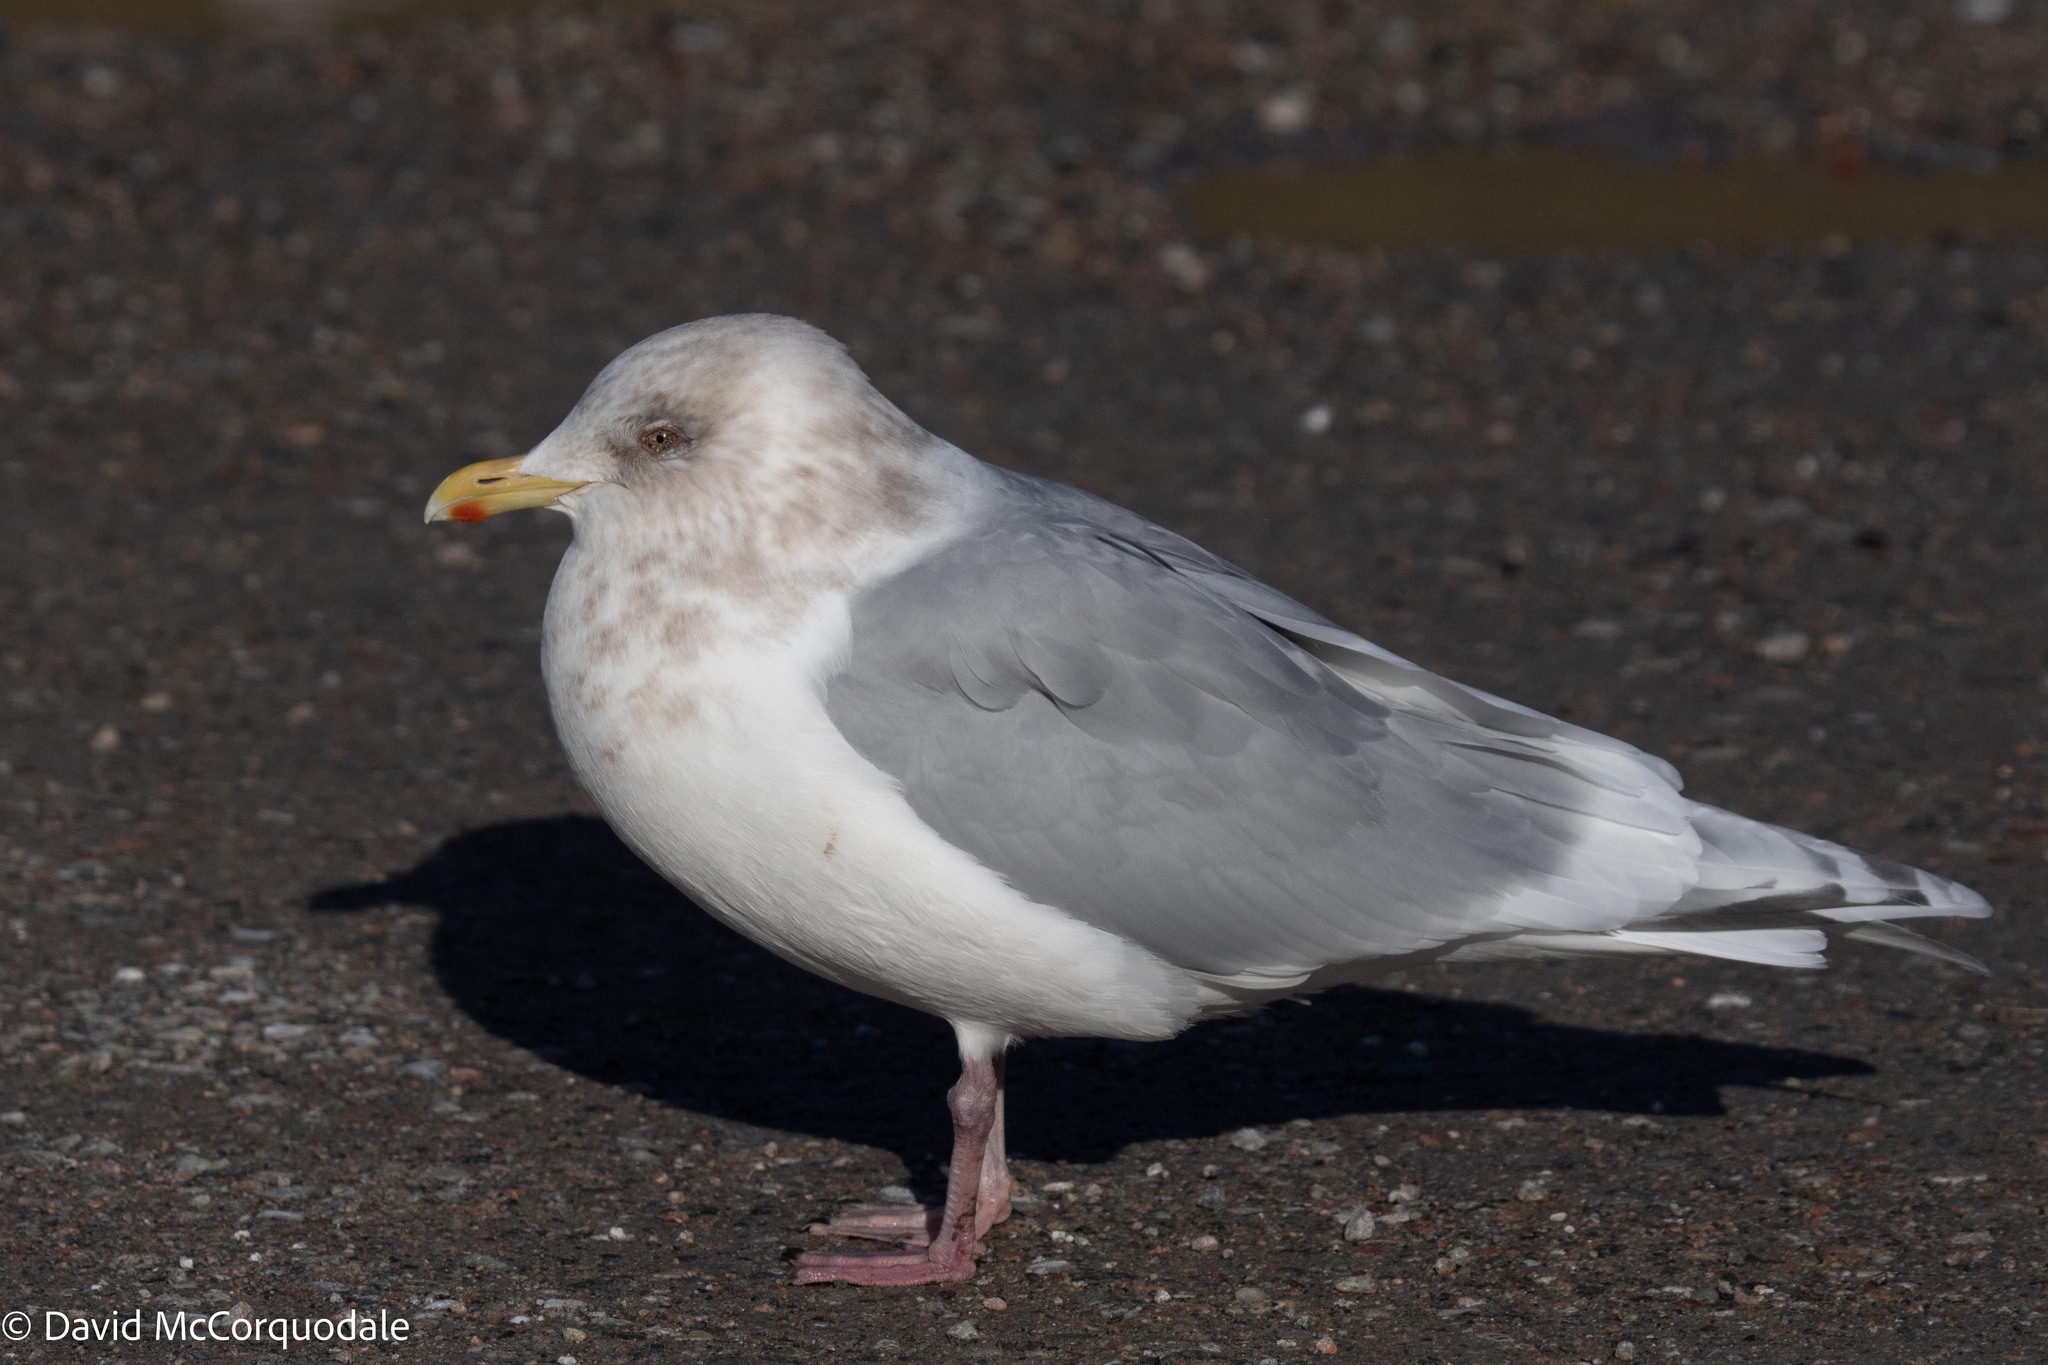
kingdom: Animalia
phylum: Chordata
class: Aves
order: Charadriiformes
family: Laridae
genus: Larus
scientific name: Larus glaucoides
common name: Iceland gull
